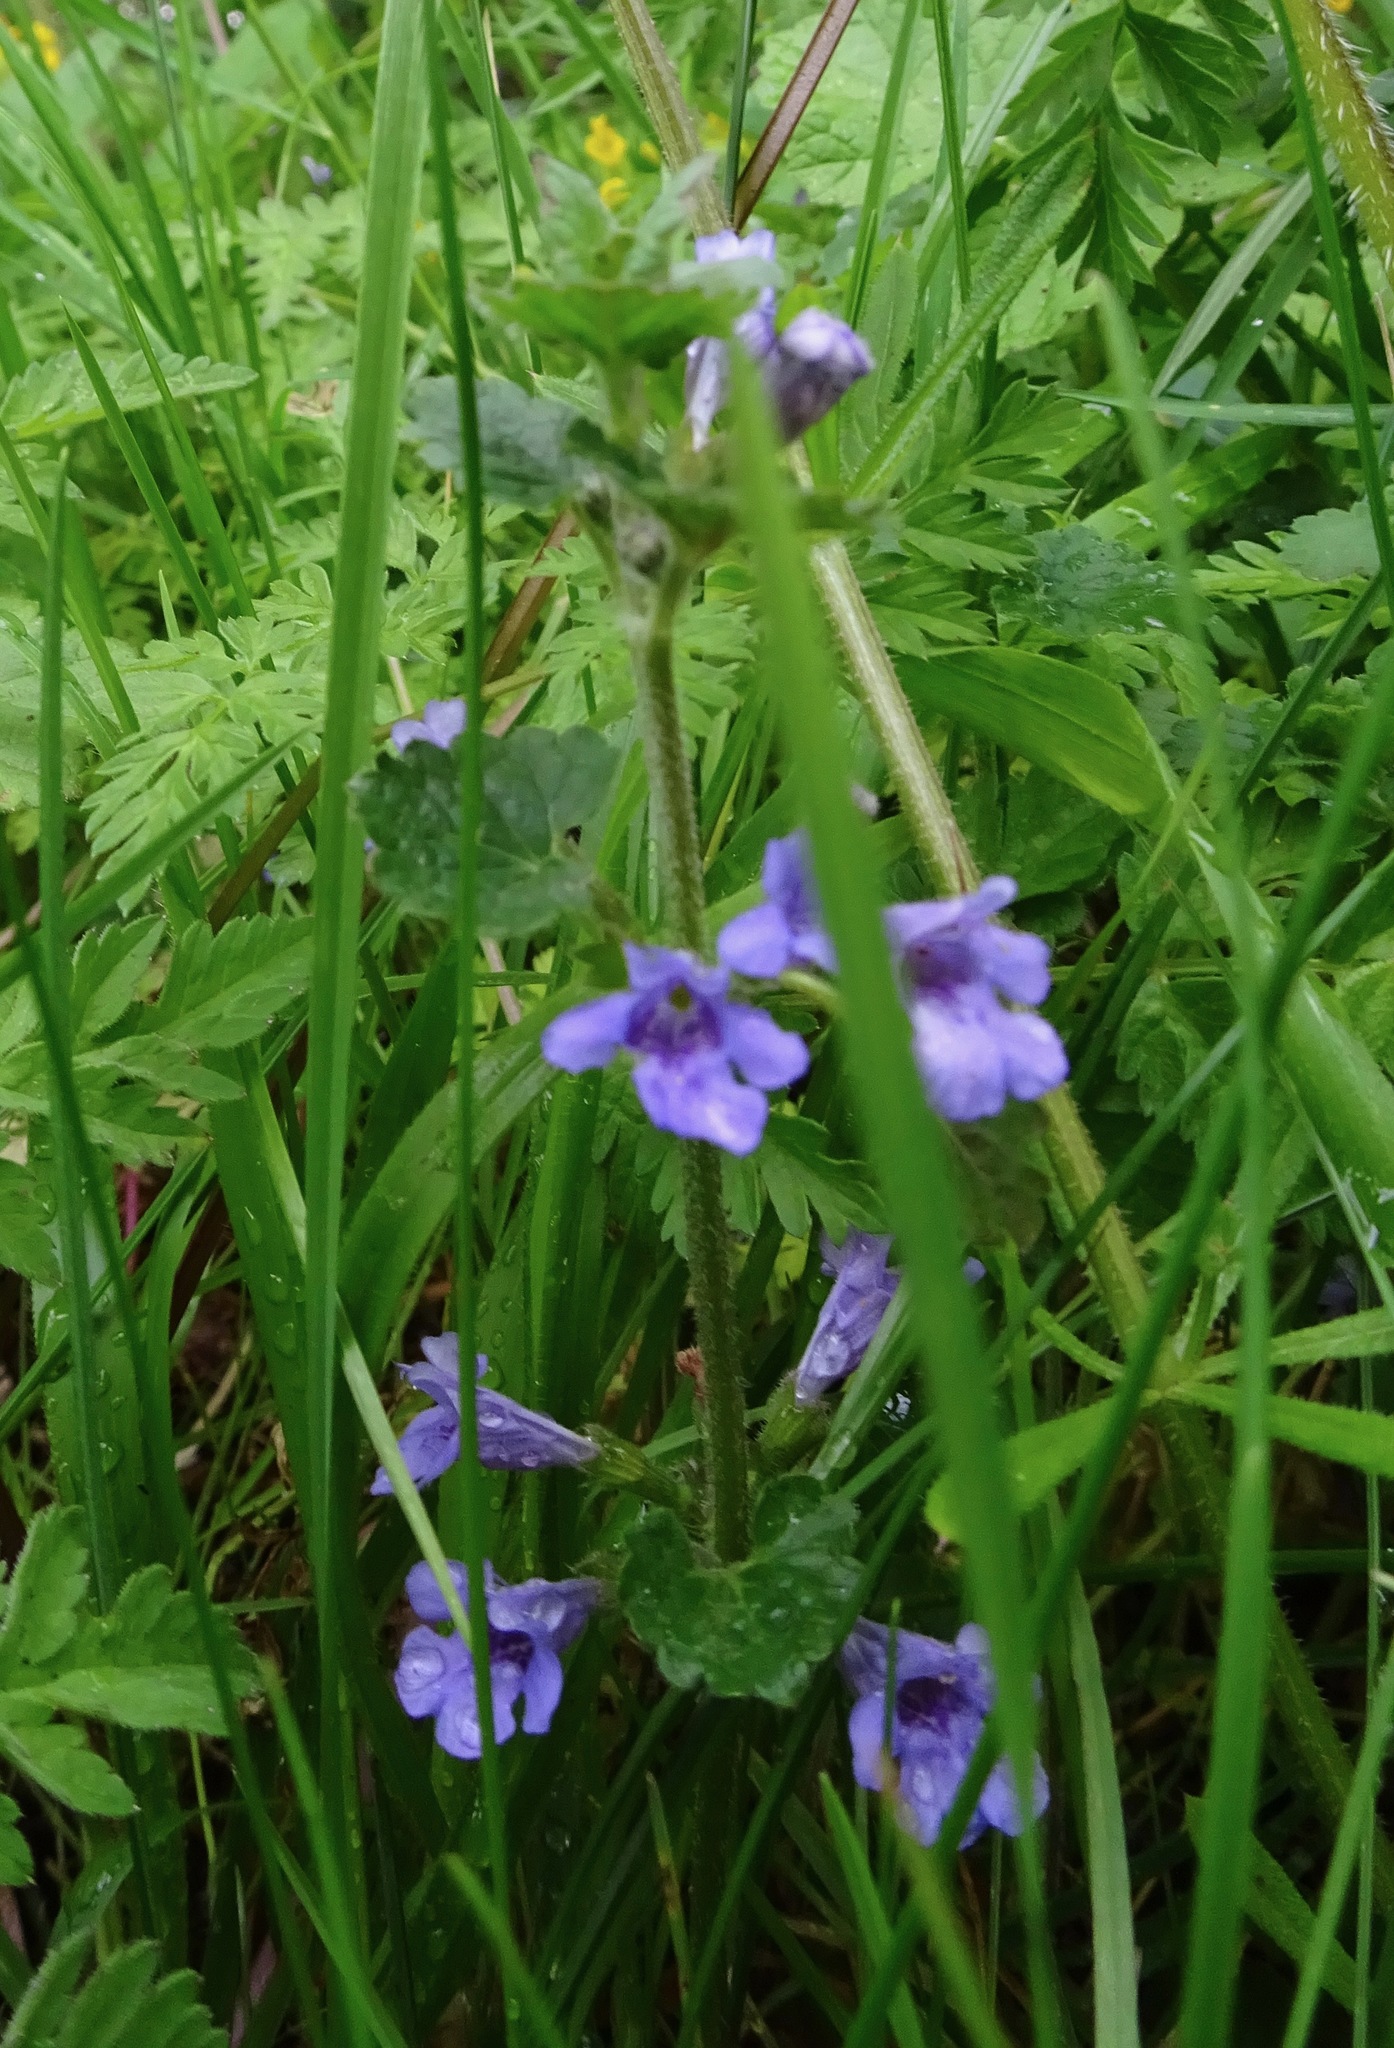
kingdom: Plantae
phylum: Tracheophyta
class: Magnoliopsida
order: Lamiales
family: Lamiaceae
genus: Glechoma
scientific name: Glechoma hederacea
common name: Ground ivy
